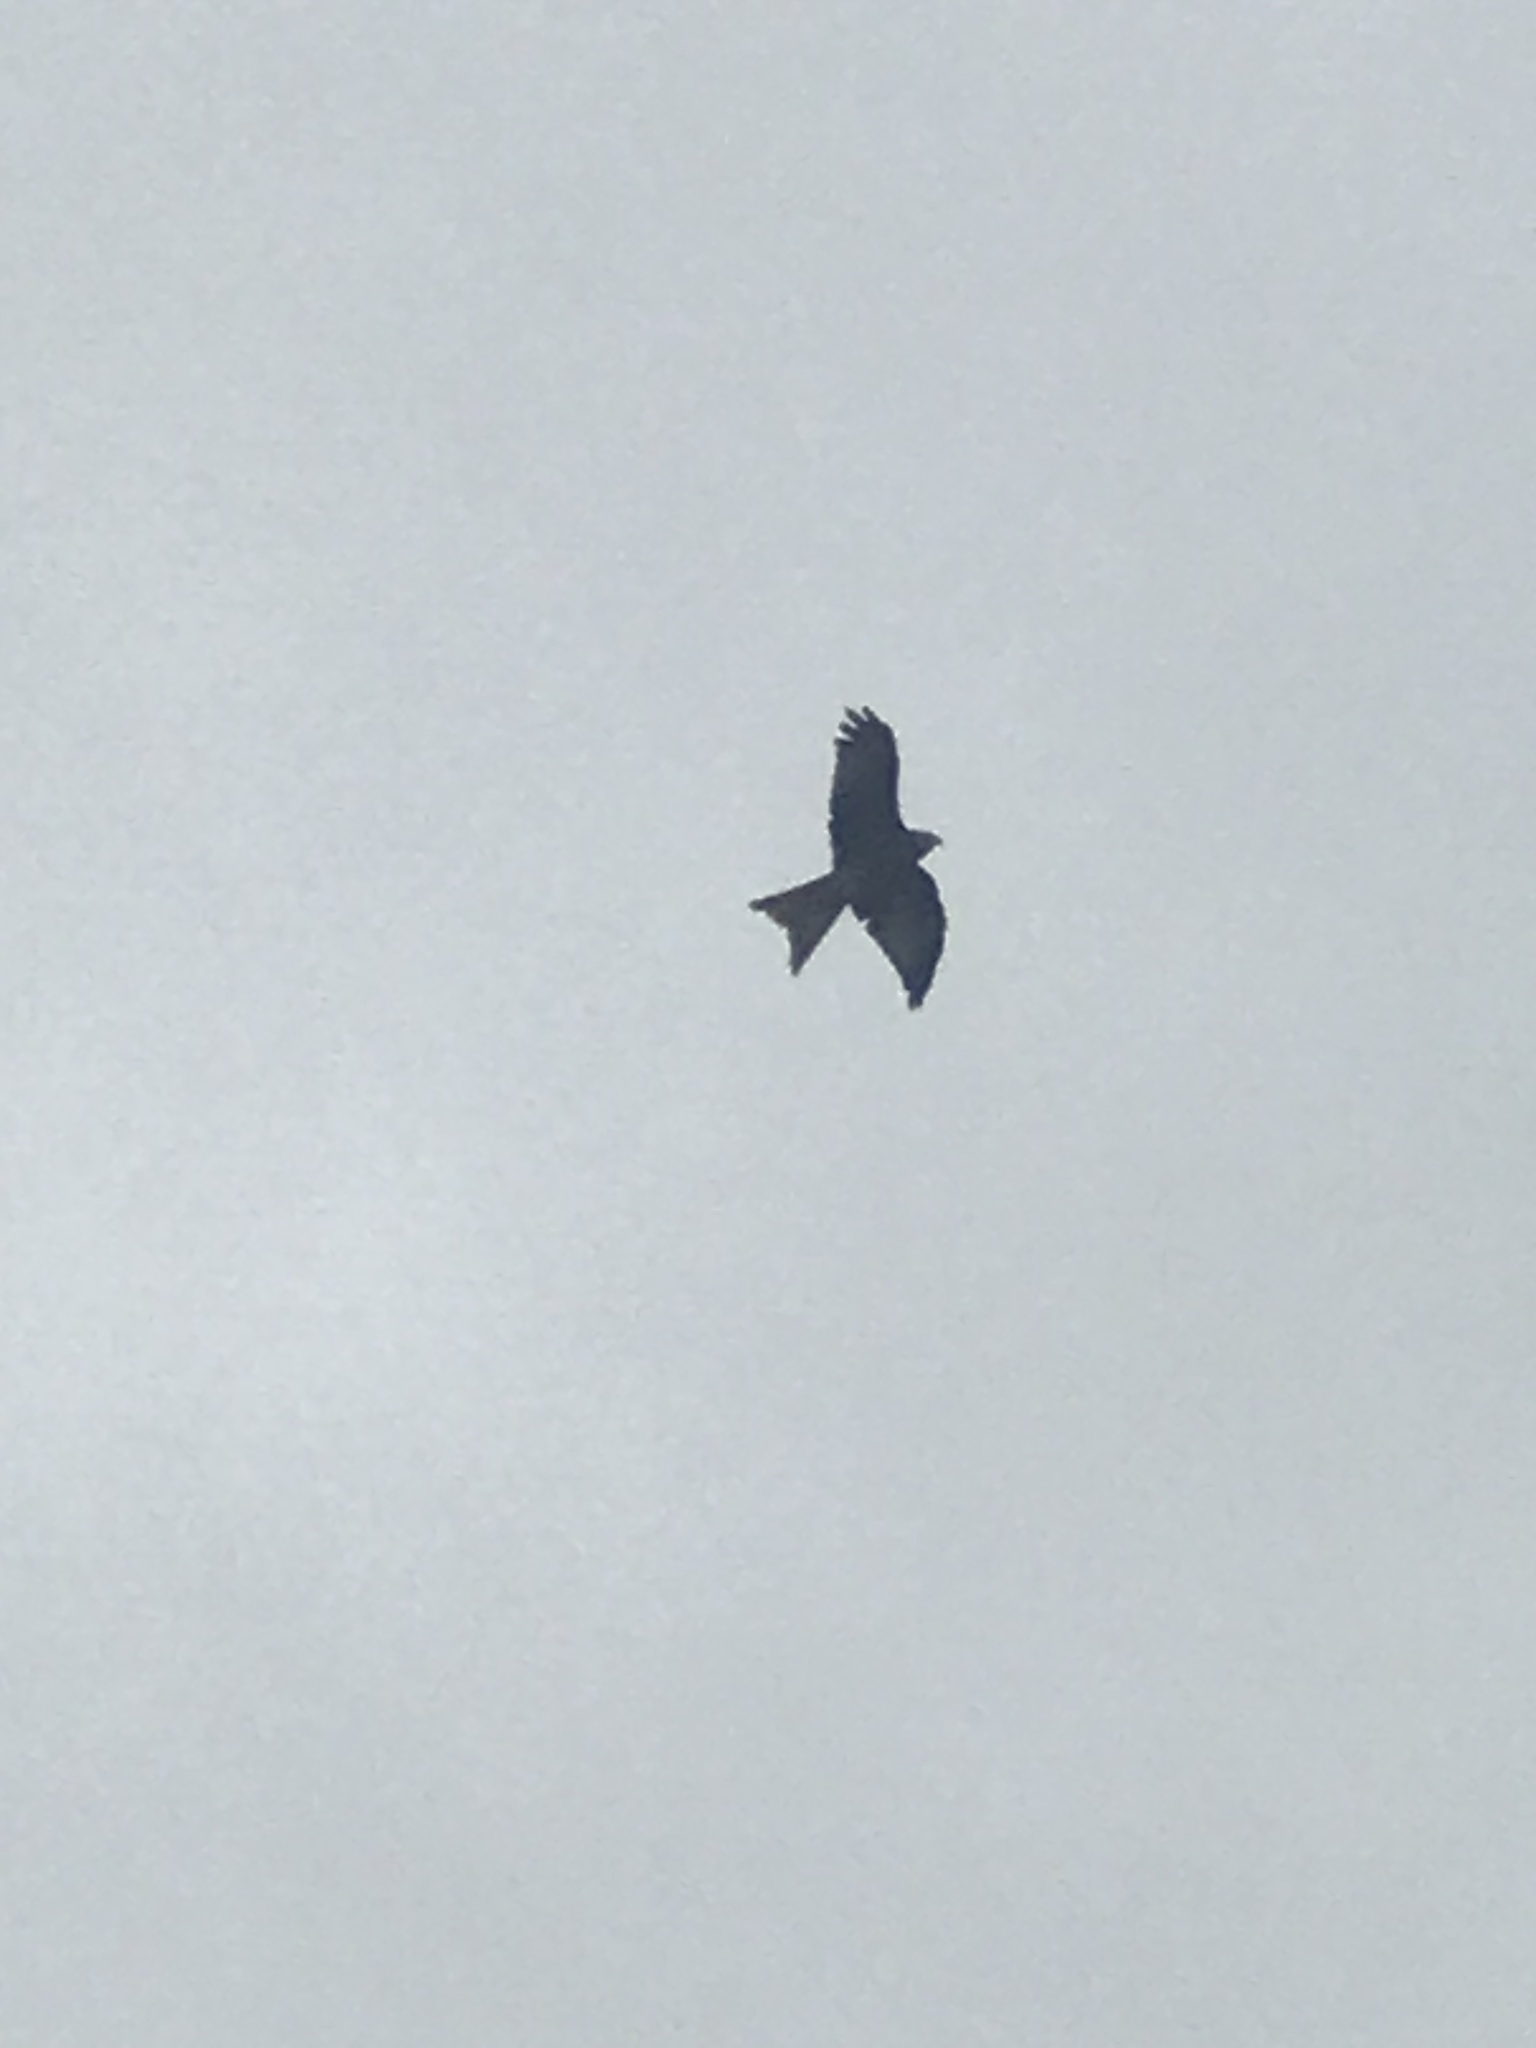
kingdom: Animalia
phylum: Chordata
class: Aves
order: Accipitriformes
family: Accipitridae
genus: Milvus
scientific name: Milvus milvus
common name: Red kite
